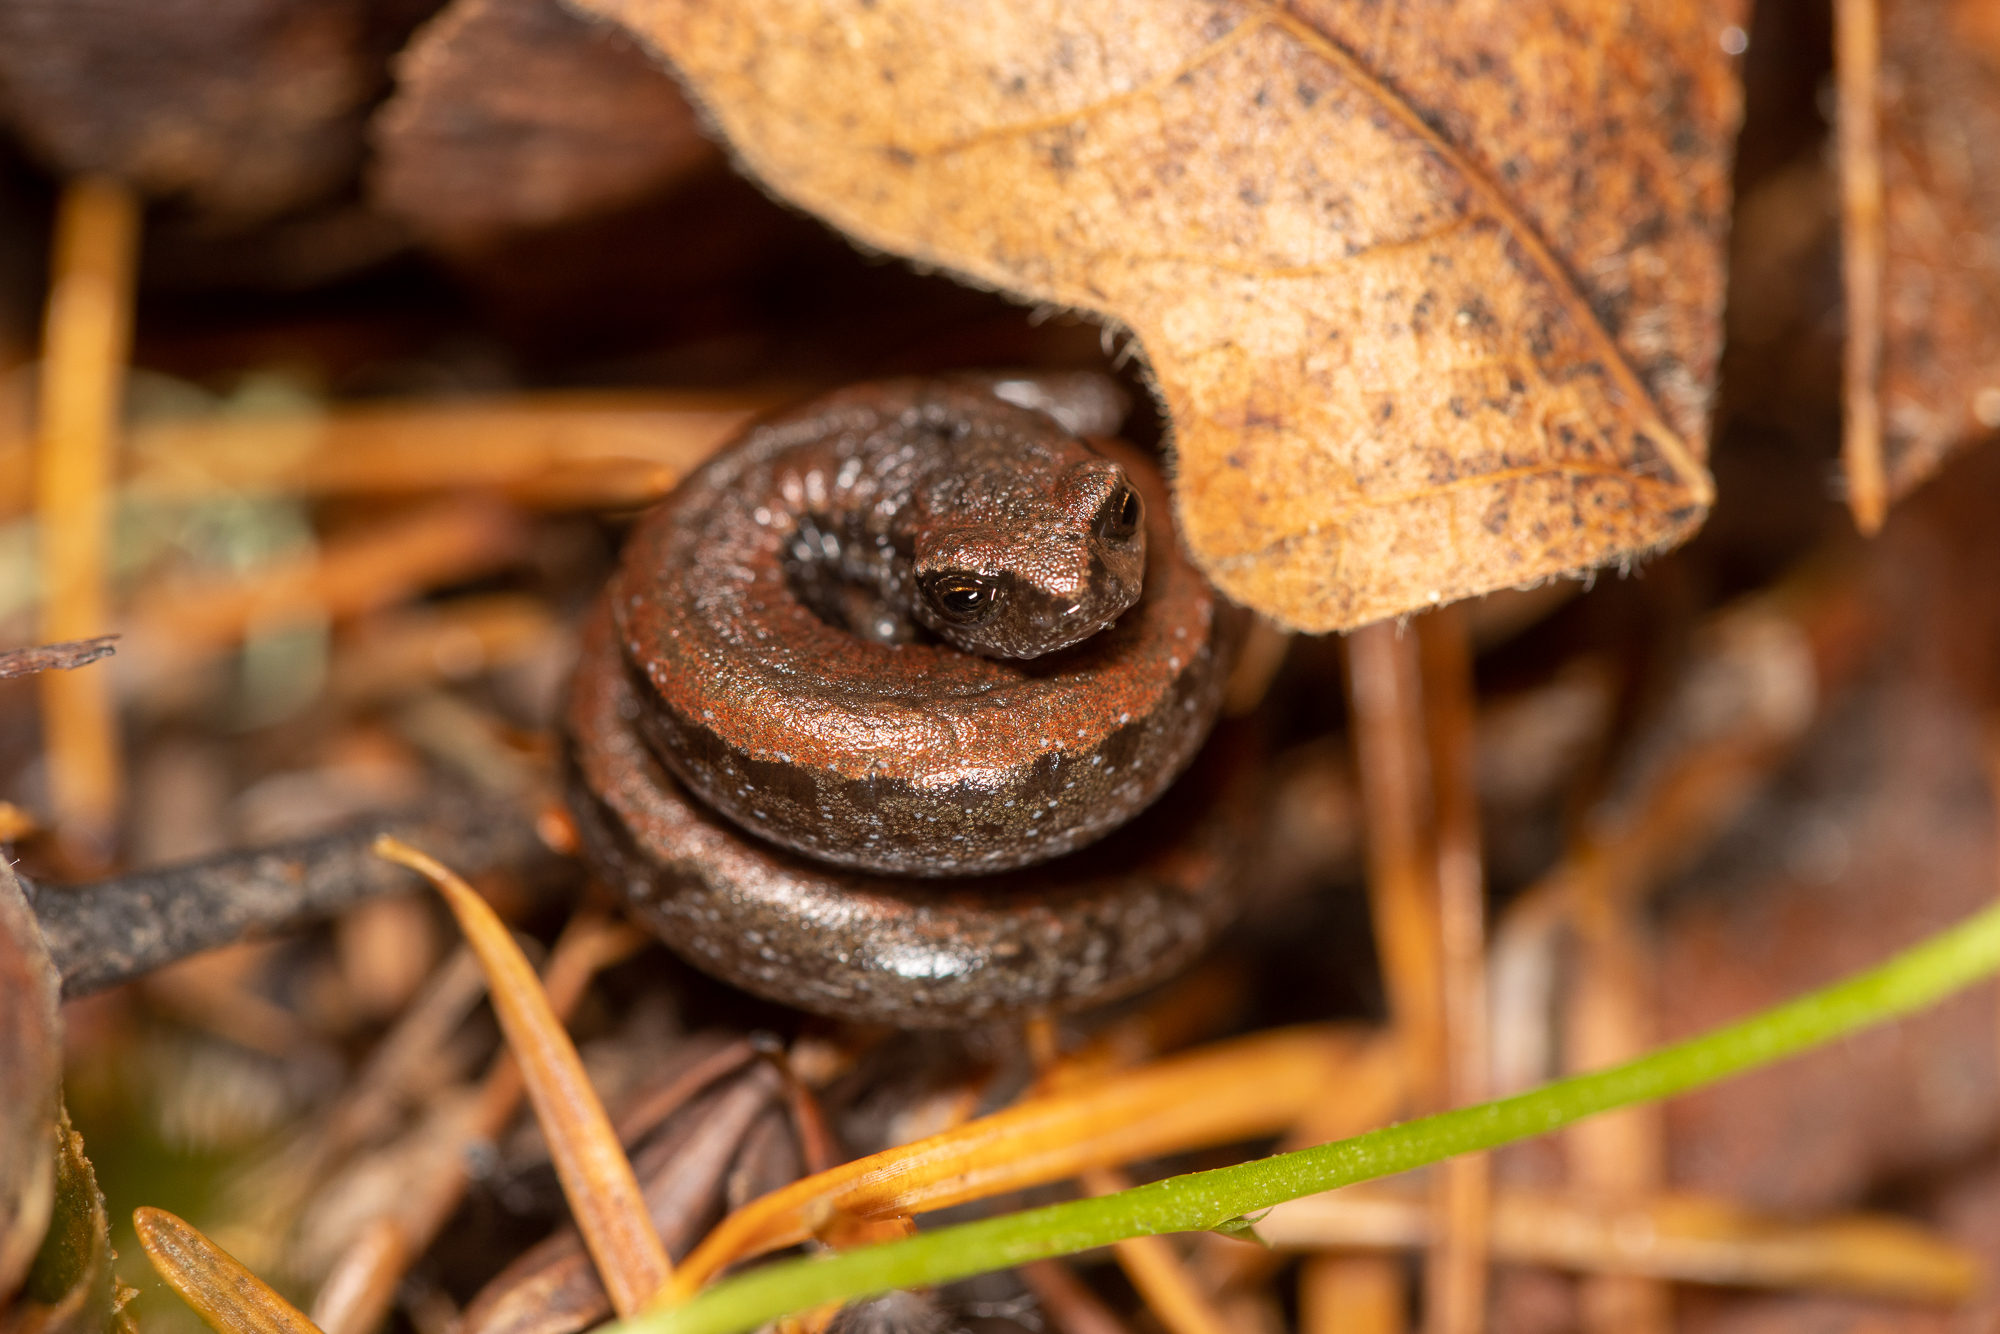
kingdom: Animalia
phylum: Chordata
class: Amphibia
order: Caudata
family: Plethodontidae
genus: Batrachoseps
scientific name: Batrachoseps attenuatus
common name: California slender salamander
